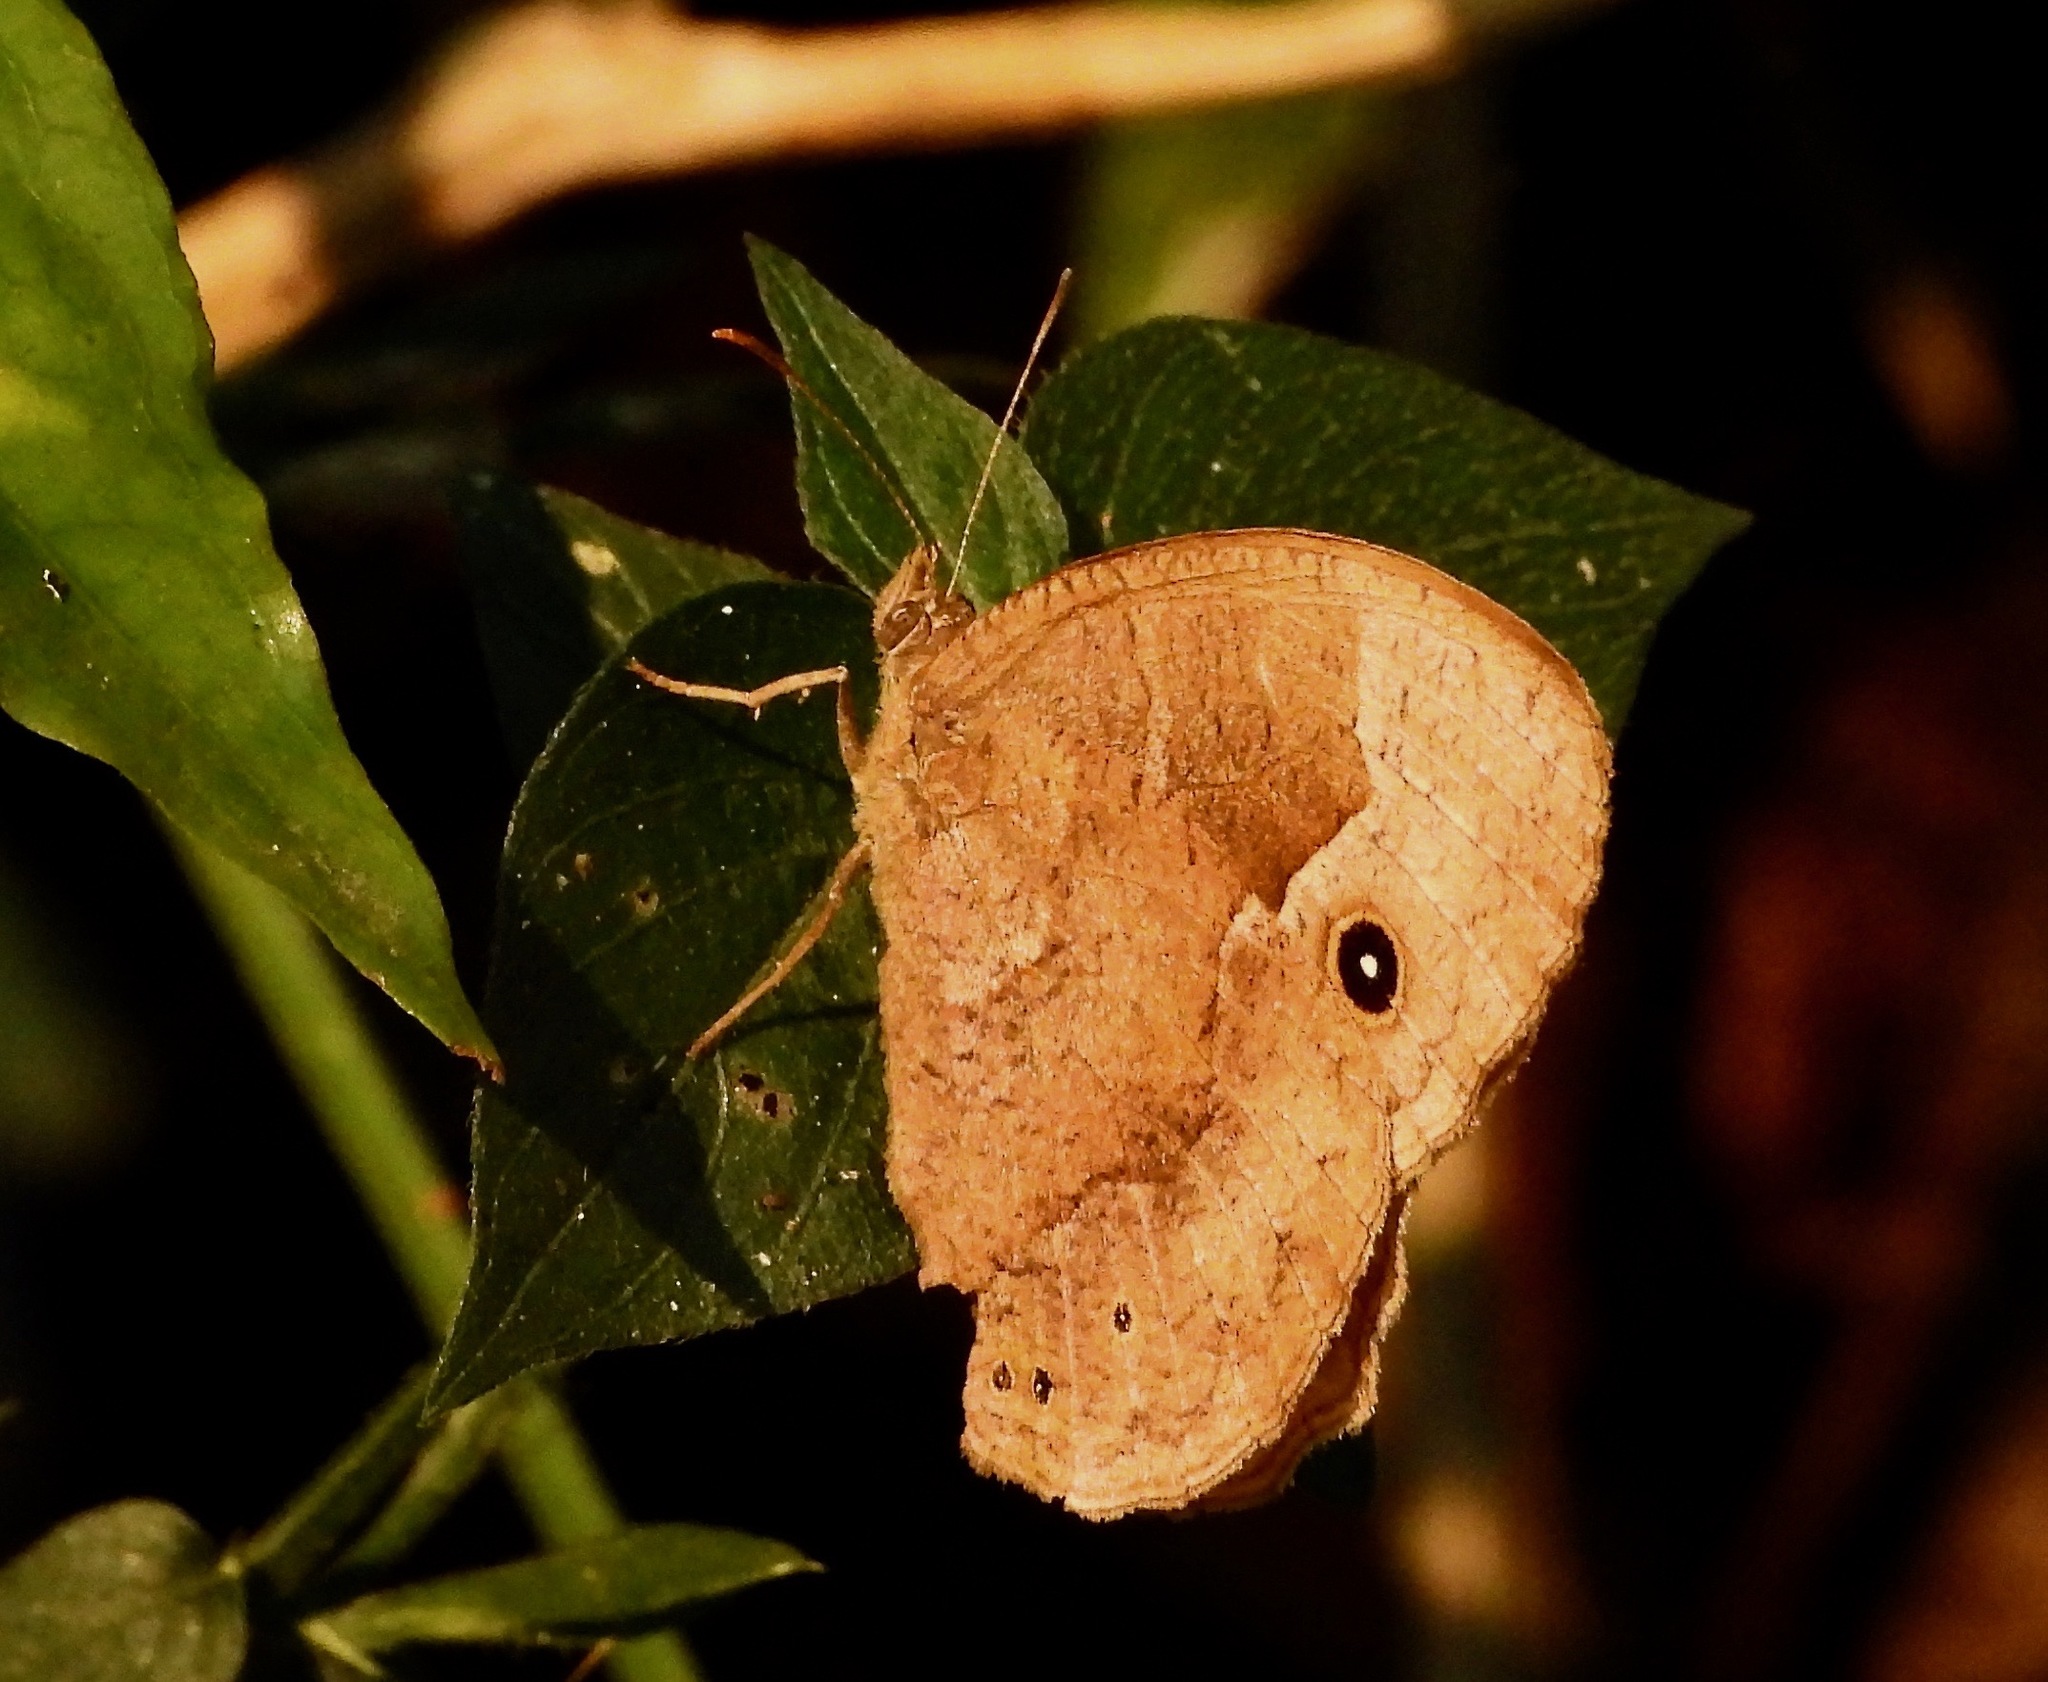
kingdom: Animalia
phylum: Arthropoda
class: Insecta
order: Lepidoptera
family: Nymphalidae
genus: Bicyclus
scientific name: Bicyclus cottrelli
